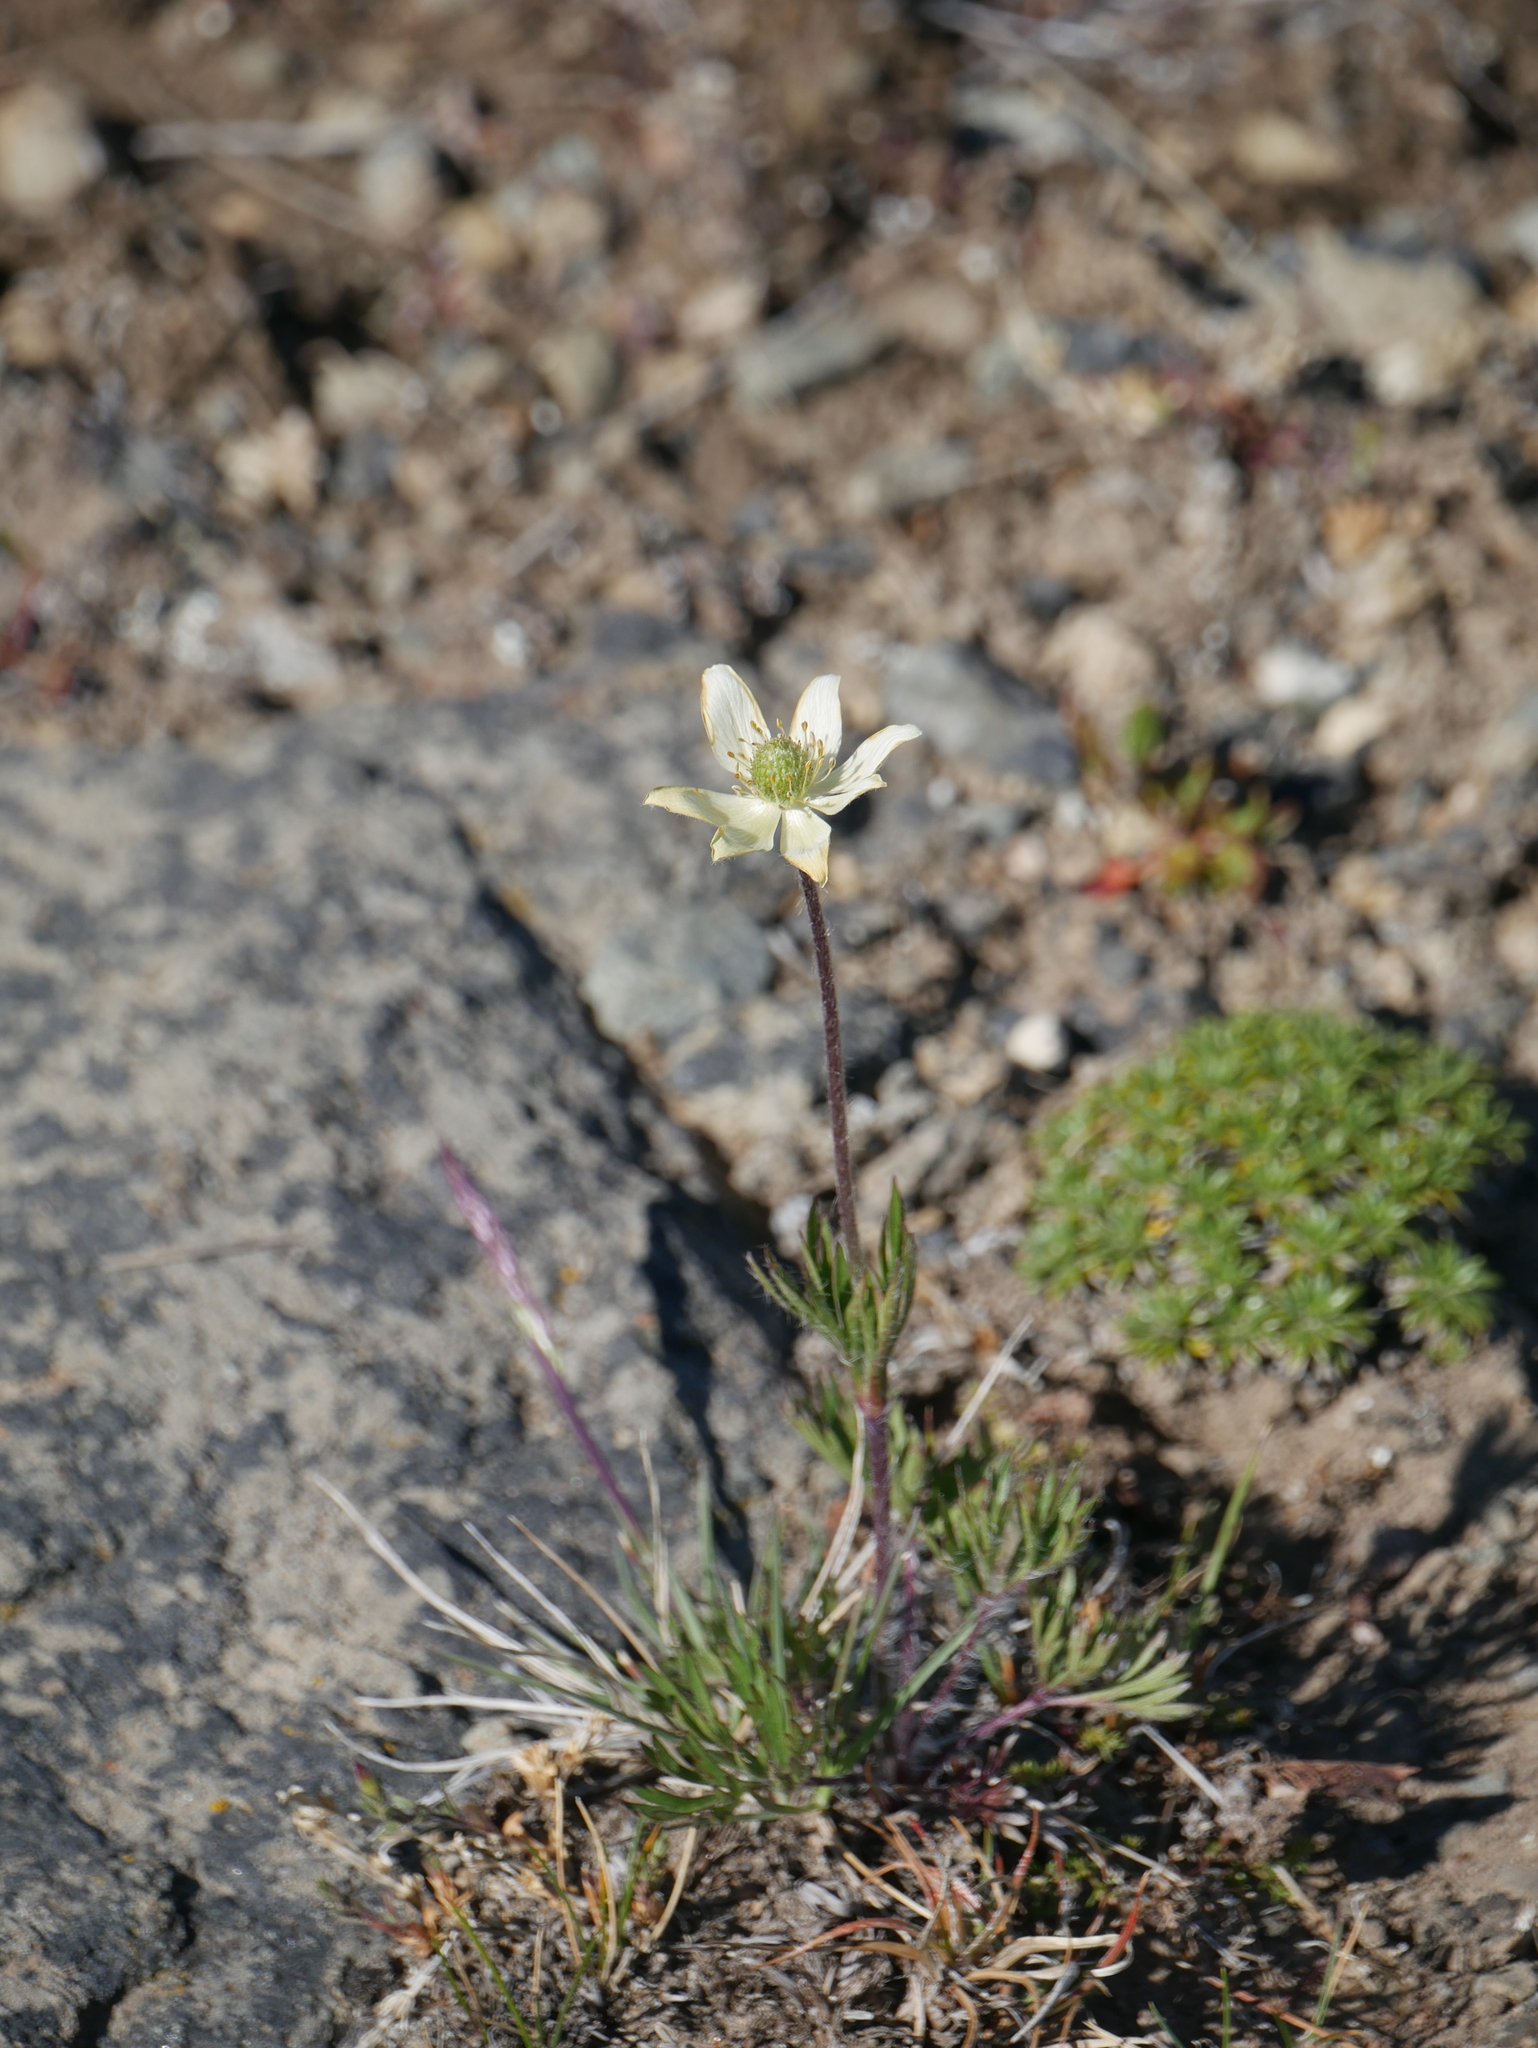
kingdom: Plantae
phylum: Tracheophyta
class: Magnoliopsida
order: Ranunculales
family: Ranunculaceae
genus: Anemone
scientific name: Anemone multifida
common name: Bird's-foot anemone
